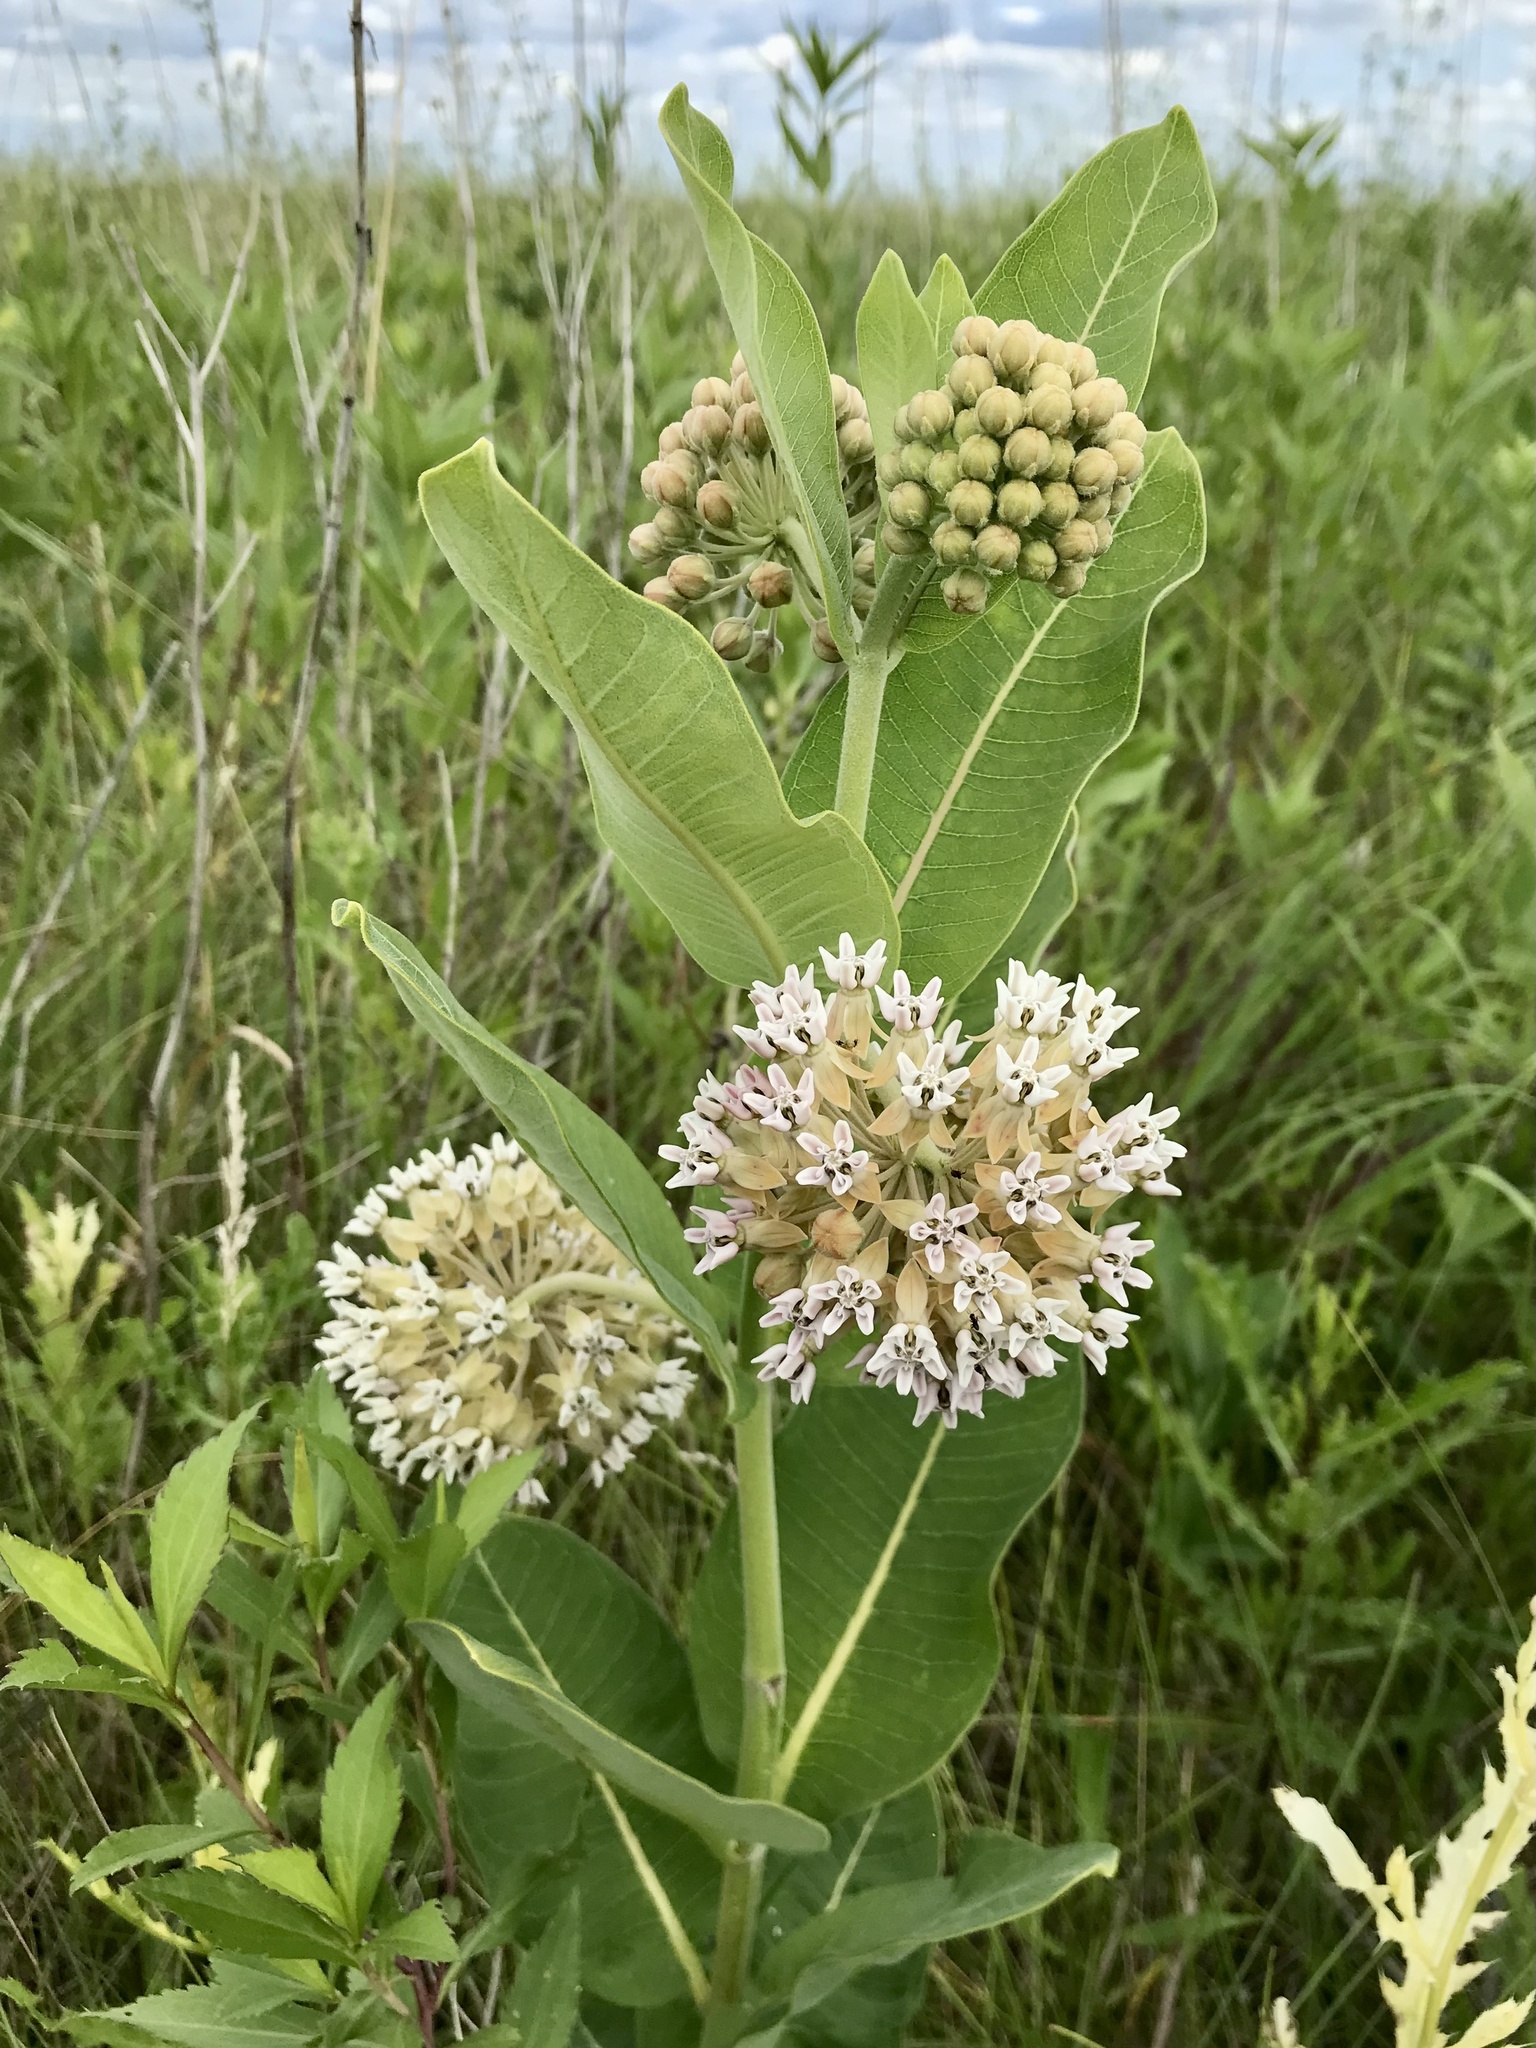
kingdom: Plantae
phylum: Tracheophyta
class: Magnoliopsida
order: Gentianales
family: Apocynaceae
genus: Asclepias
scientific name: Asclepias syriaca
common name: Common milkweed
